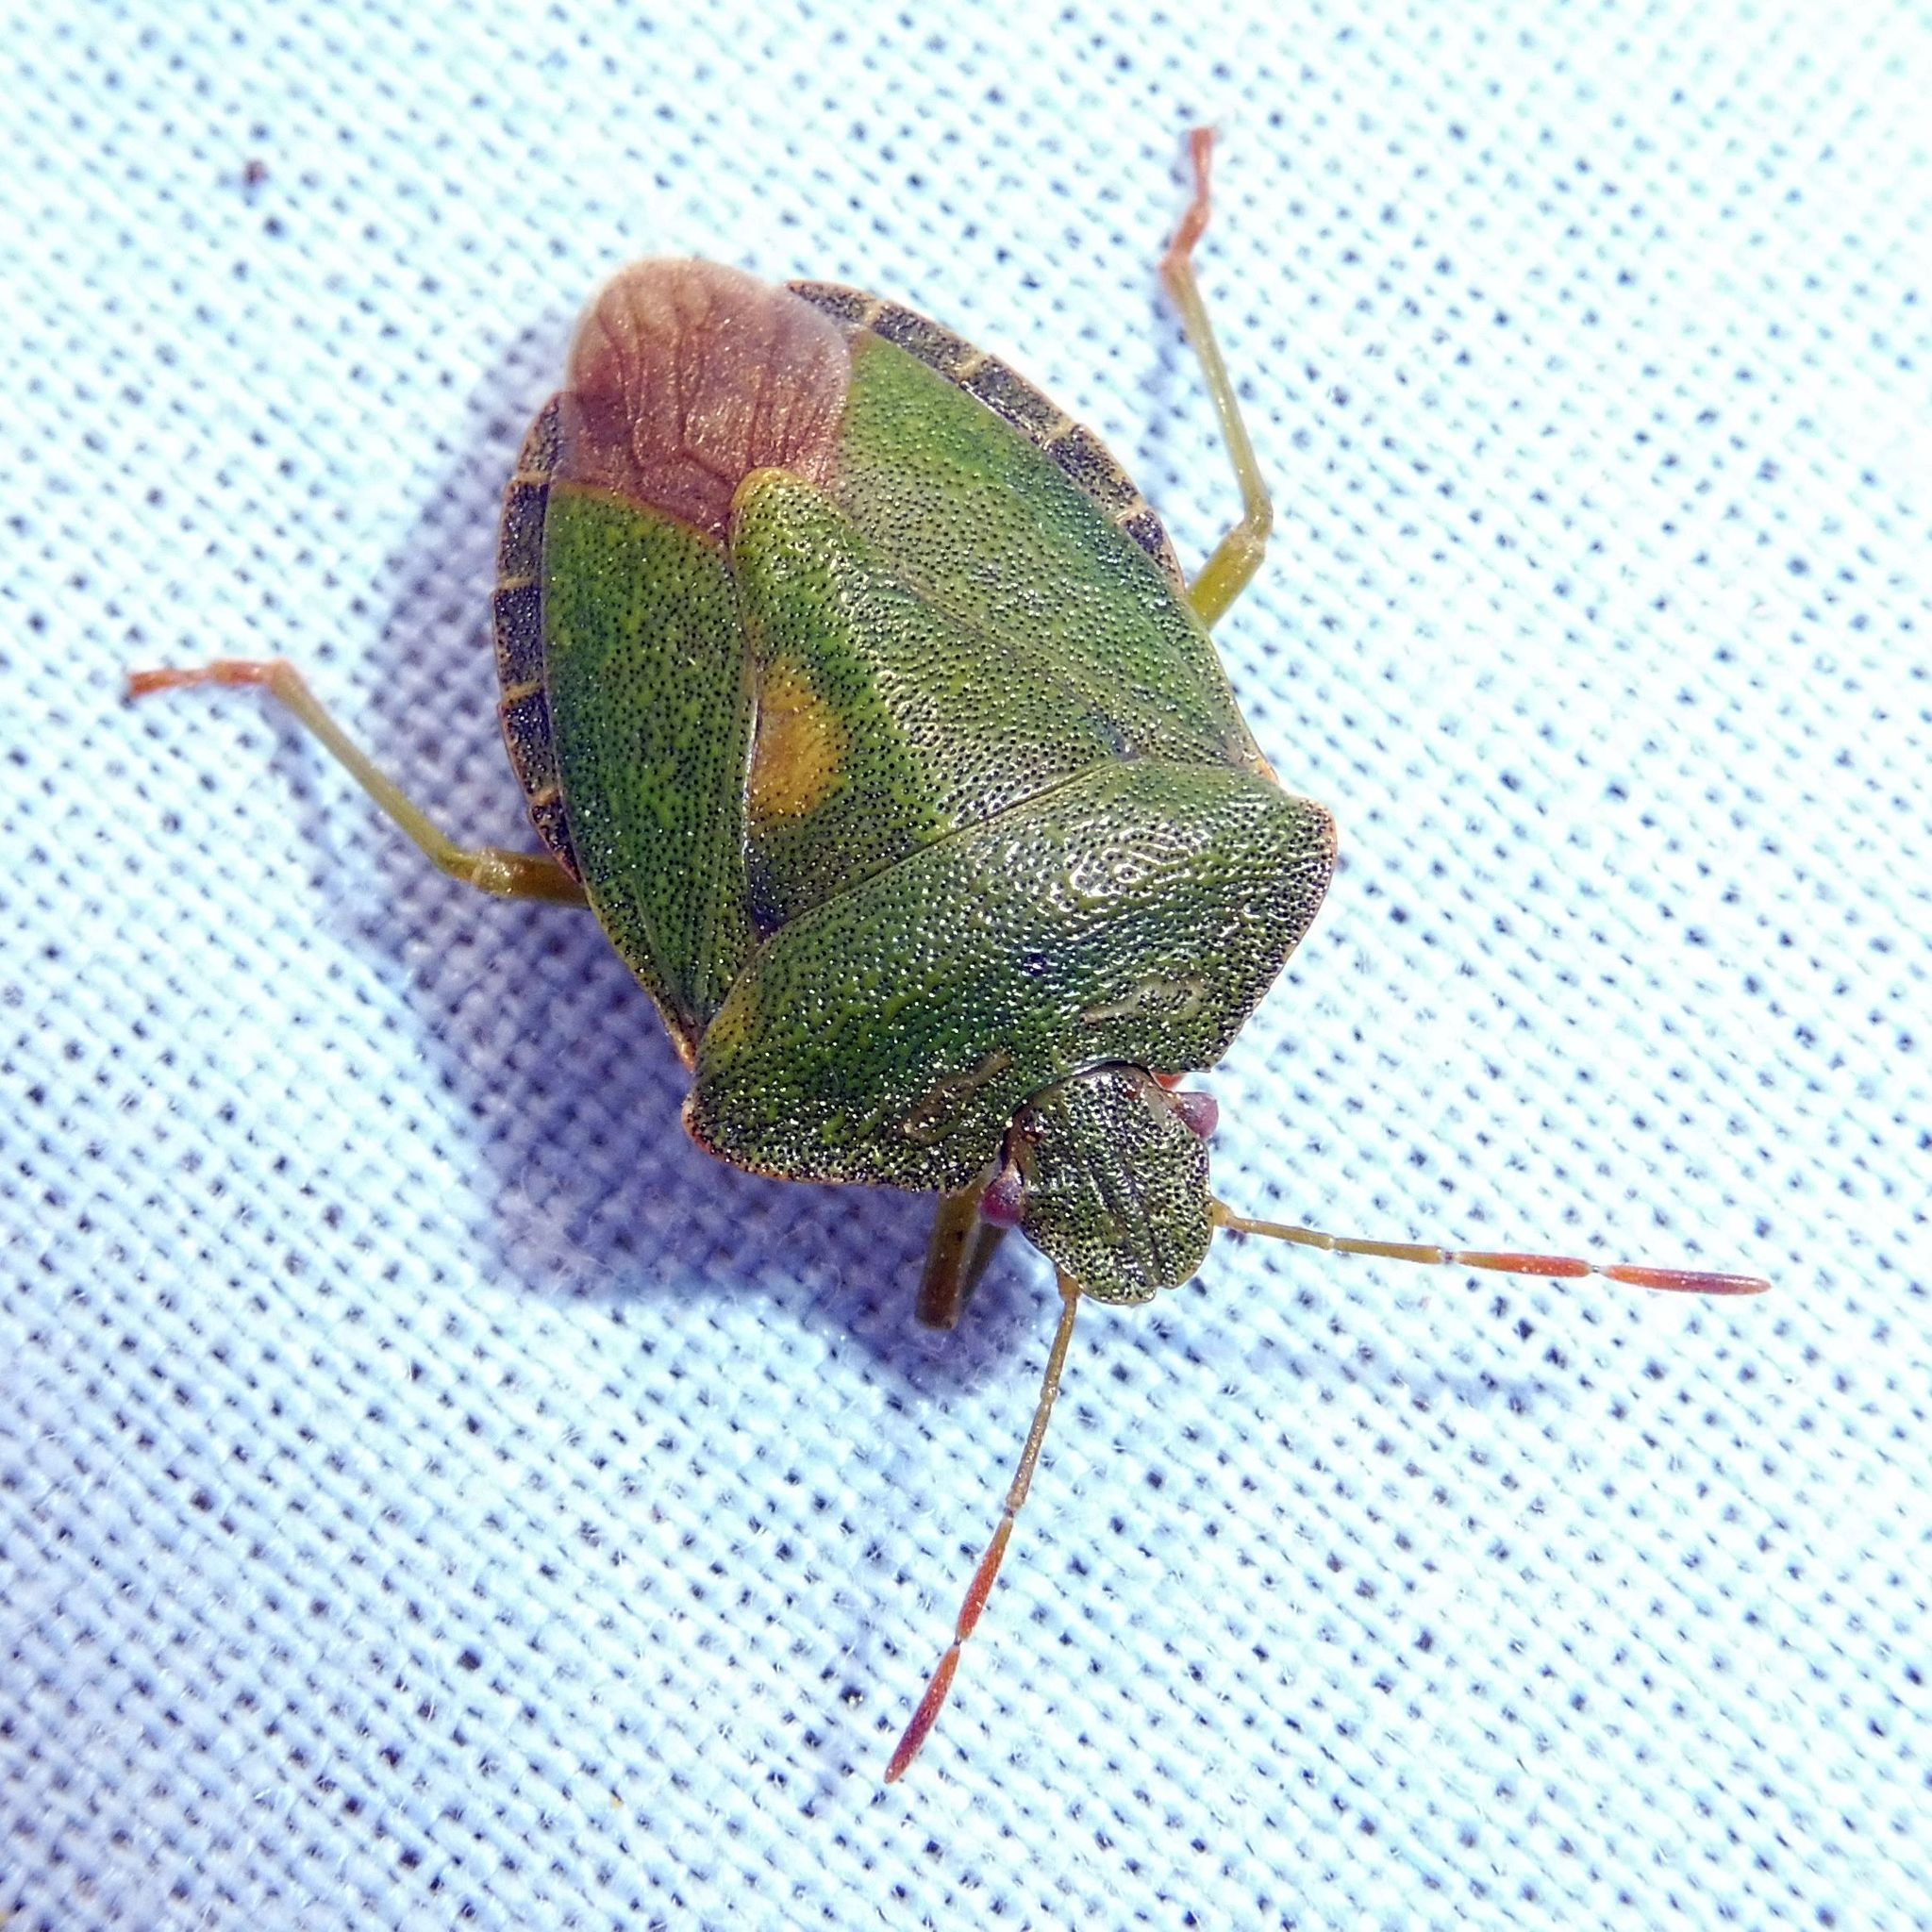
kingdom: Animalia
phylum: Arthropoda
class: Insecta
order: Hemiptera
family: Pentatomidae
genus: Palomena
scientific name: Palomena prasina
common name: Green shieldbug
